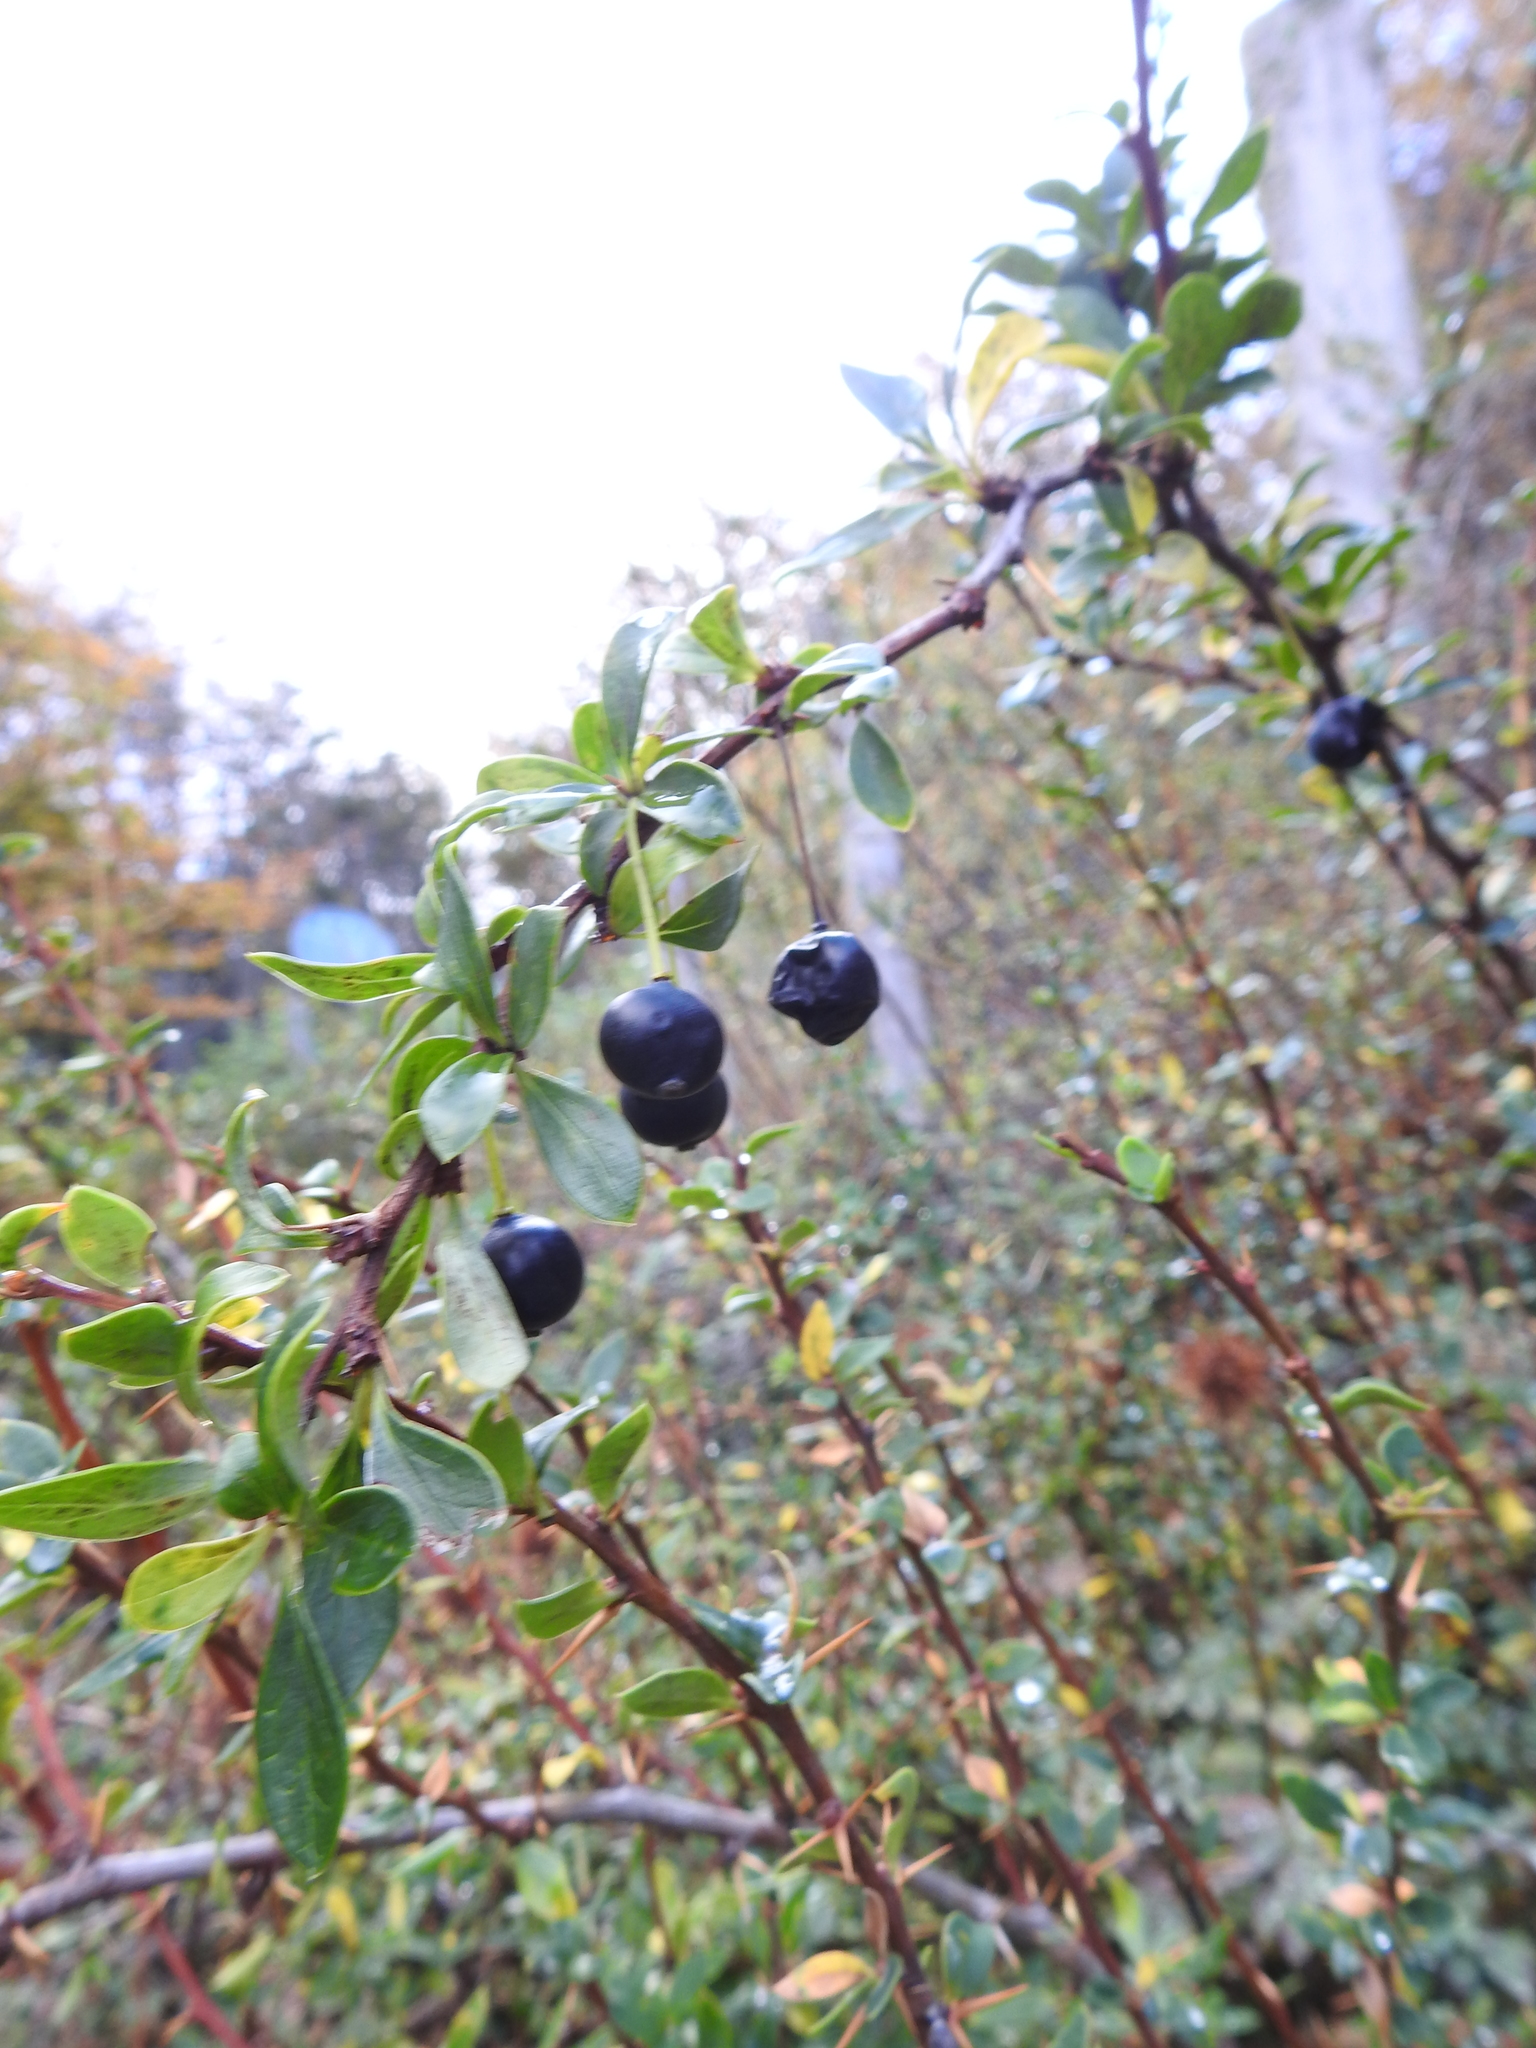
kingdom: Plantae
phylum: Tracheophyta
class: Magnoliopsida
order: Ranunculales
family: Berberidaceae
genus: Berberis
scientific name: Berberis microphylla
